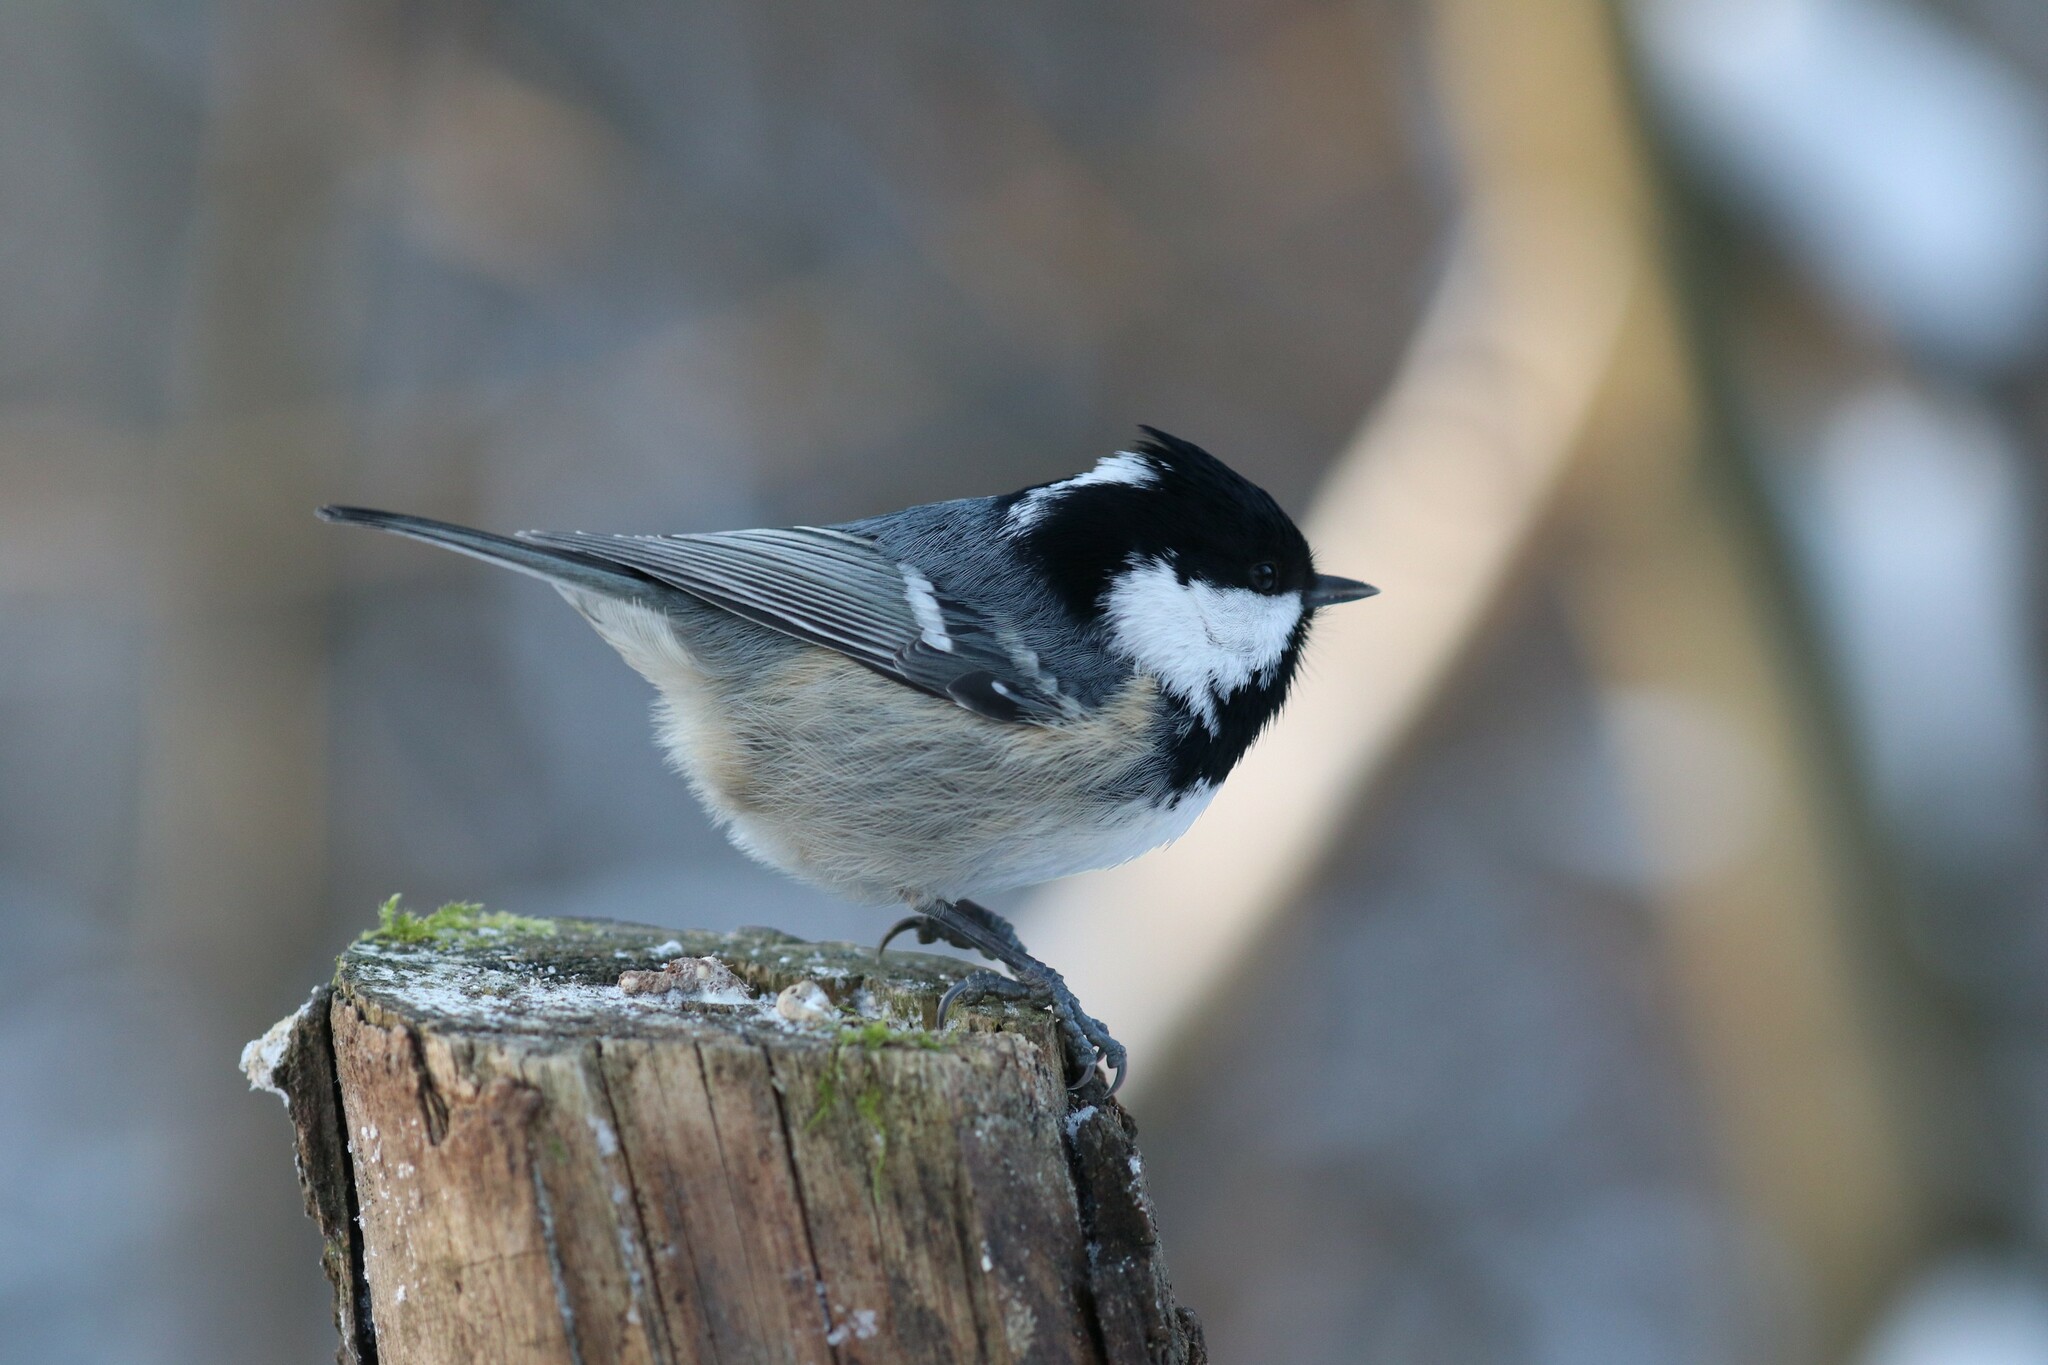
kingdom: Animalia
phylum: Chordata
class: Aves
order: Passeriformes
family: Paridae
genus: Periparus
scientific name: Periparus ater
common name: Coal tit
